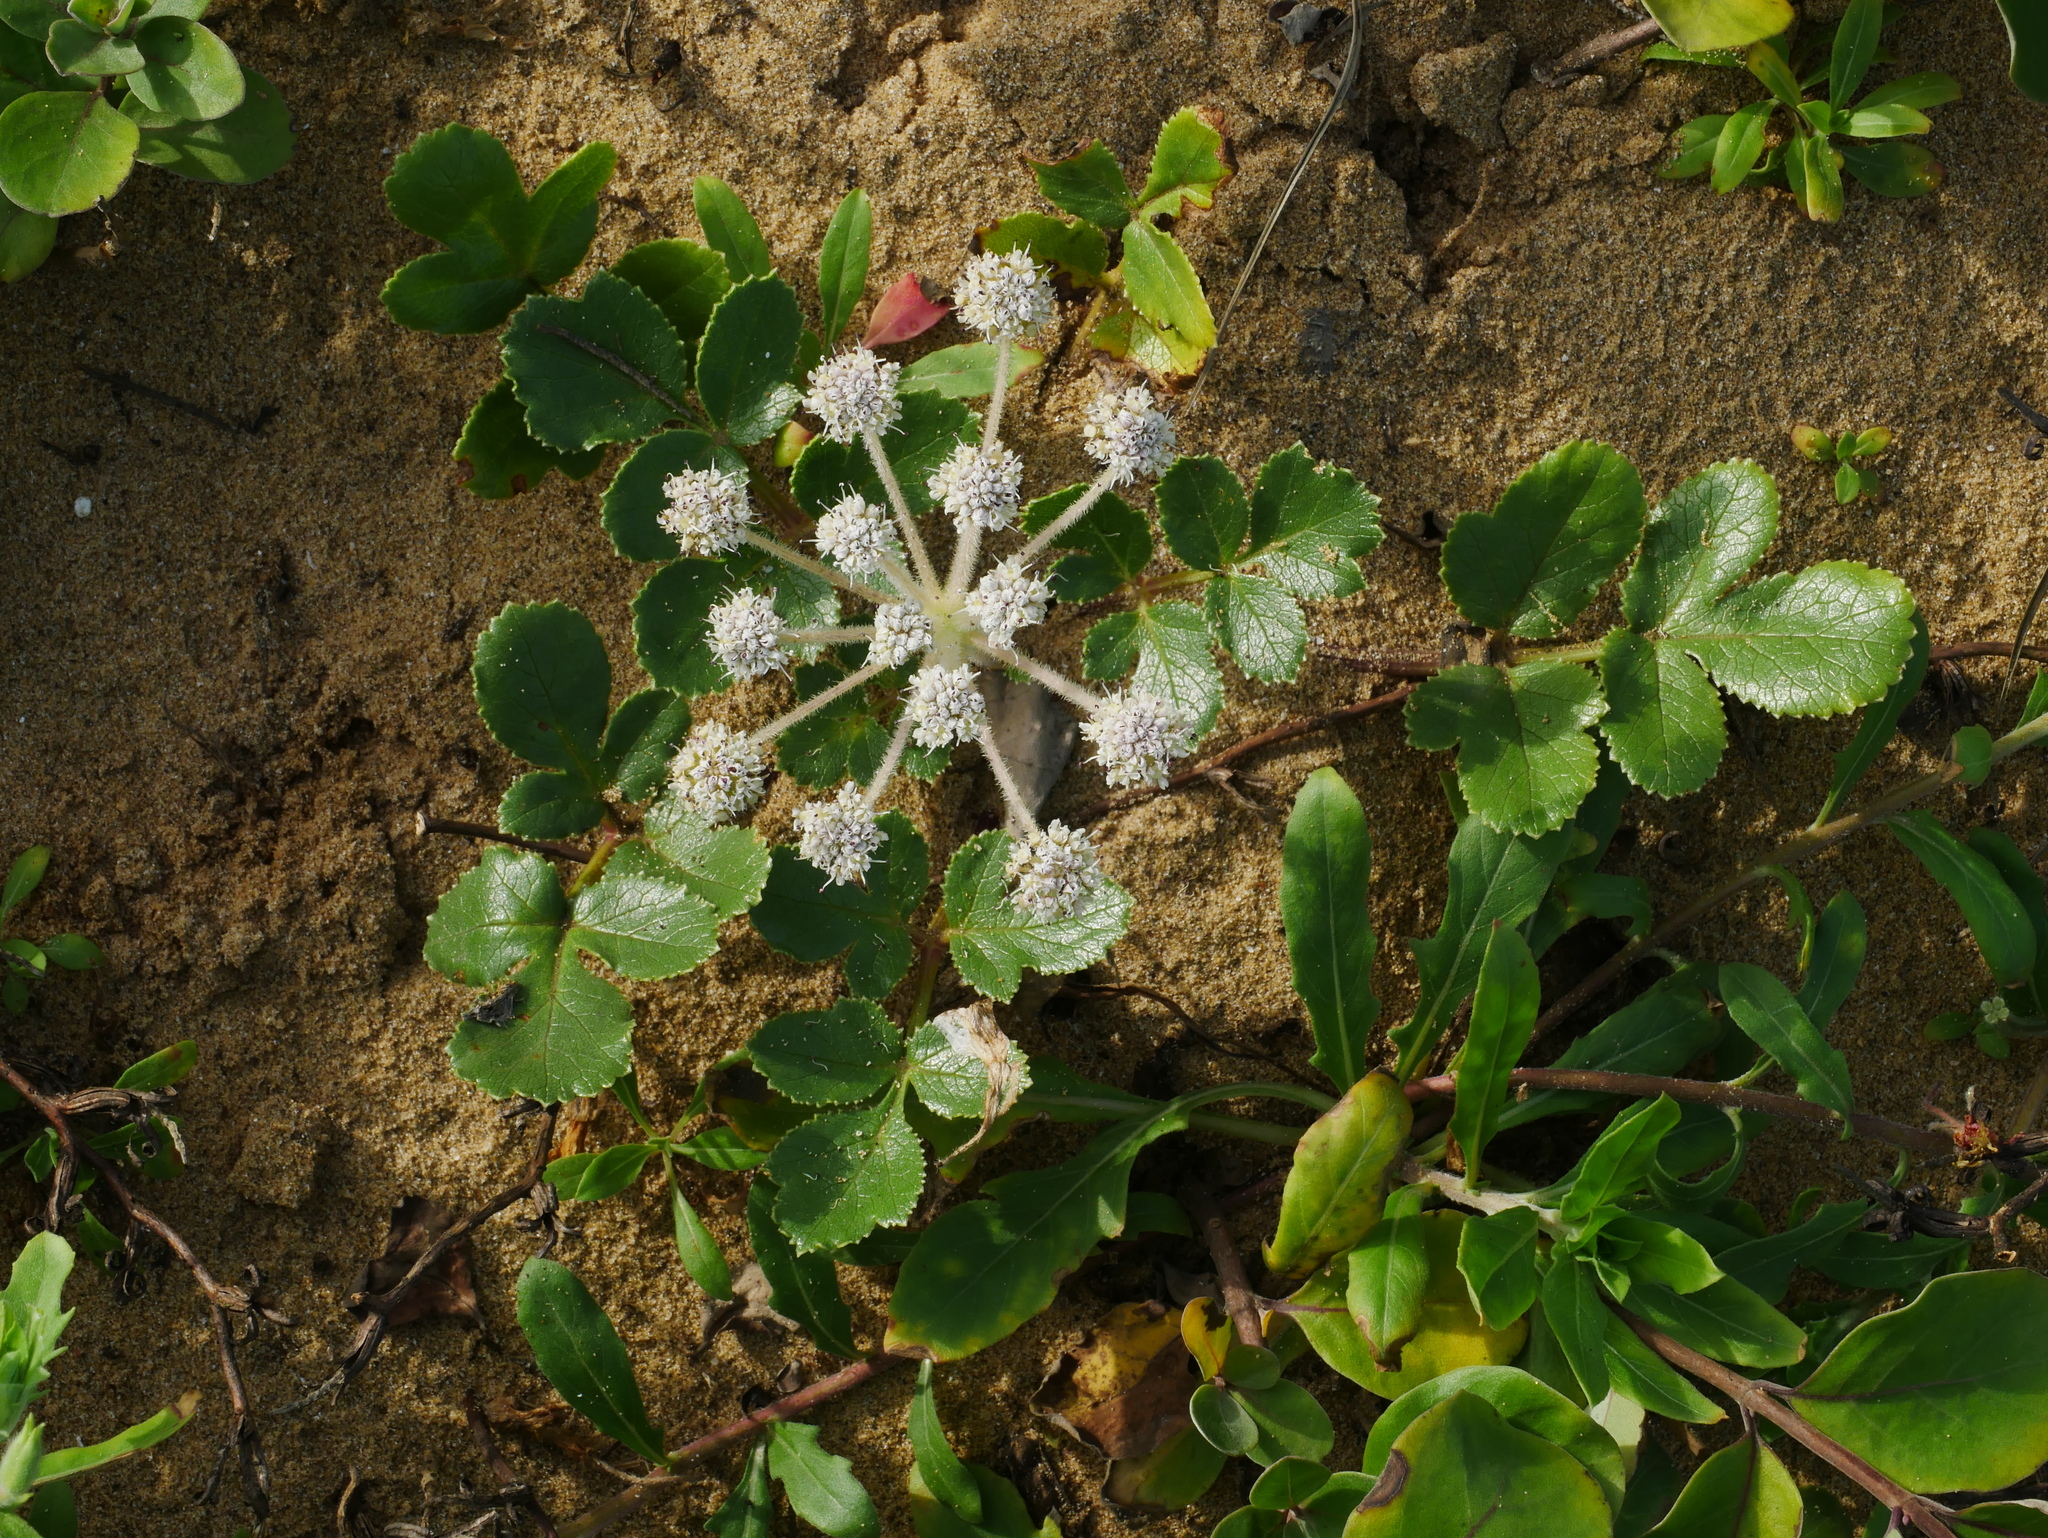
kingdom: Plantae
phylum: Tracheophyta
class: Magnoliopsida
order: Apiales
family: Apiaceae
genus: Glehnia
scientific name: Glehnia littoralis
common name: Beach silvertop
